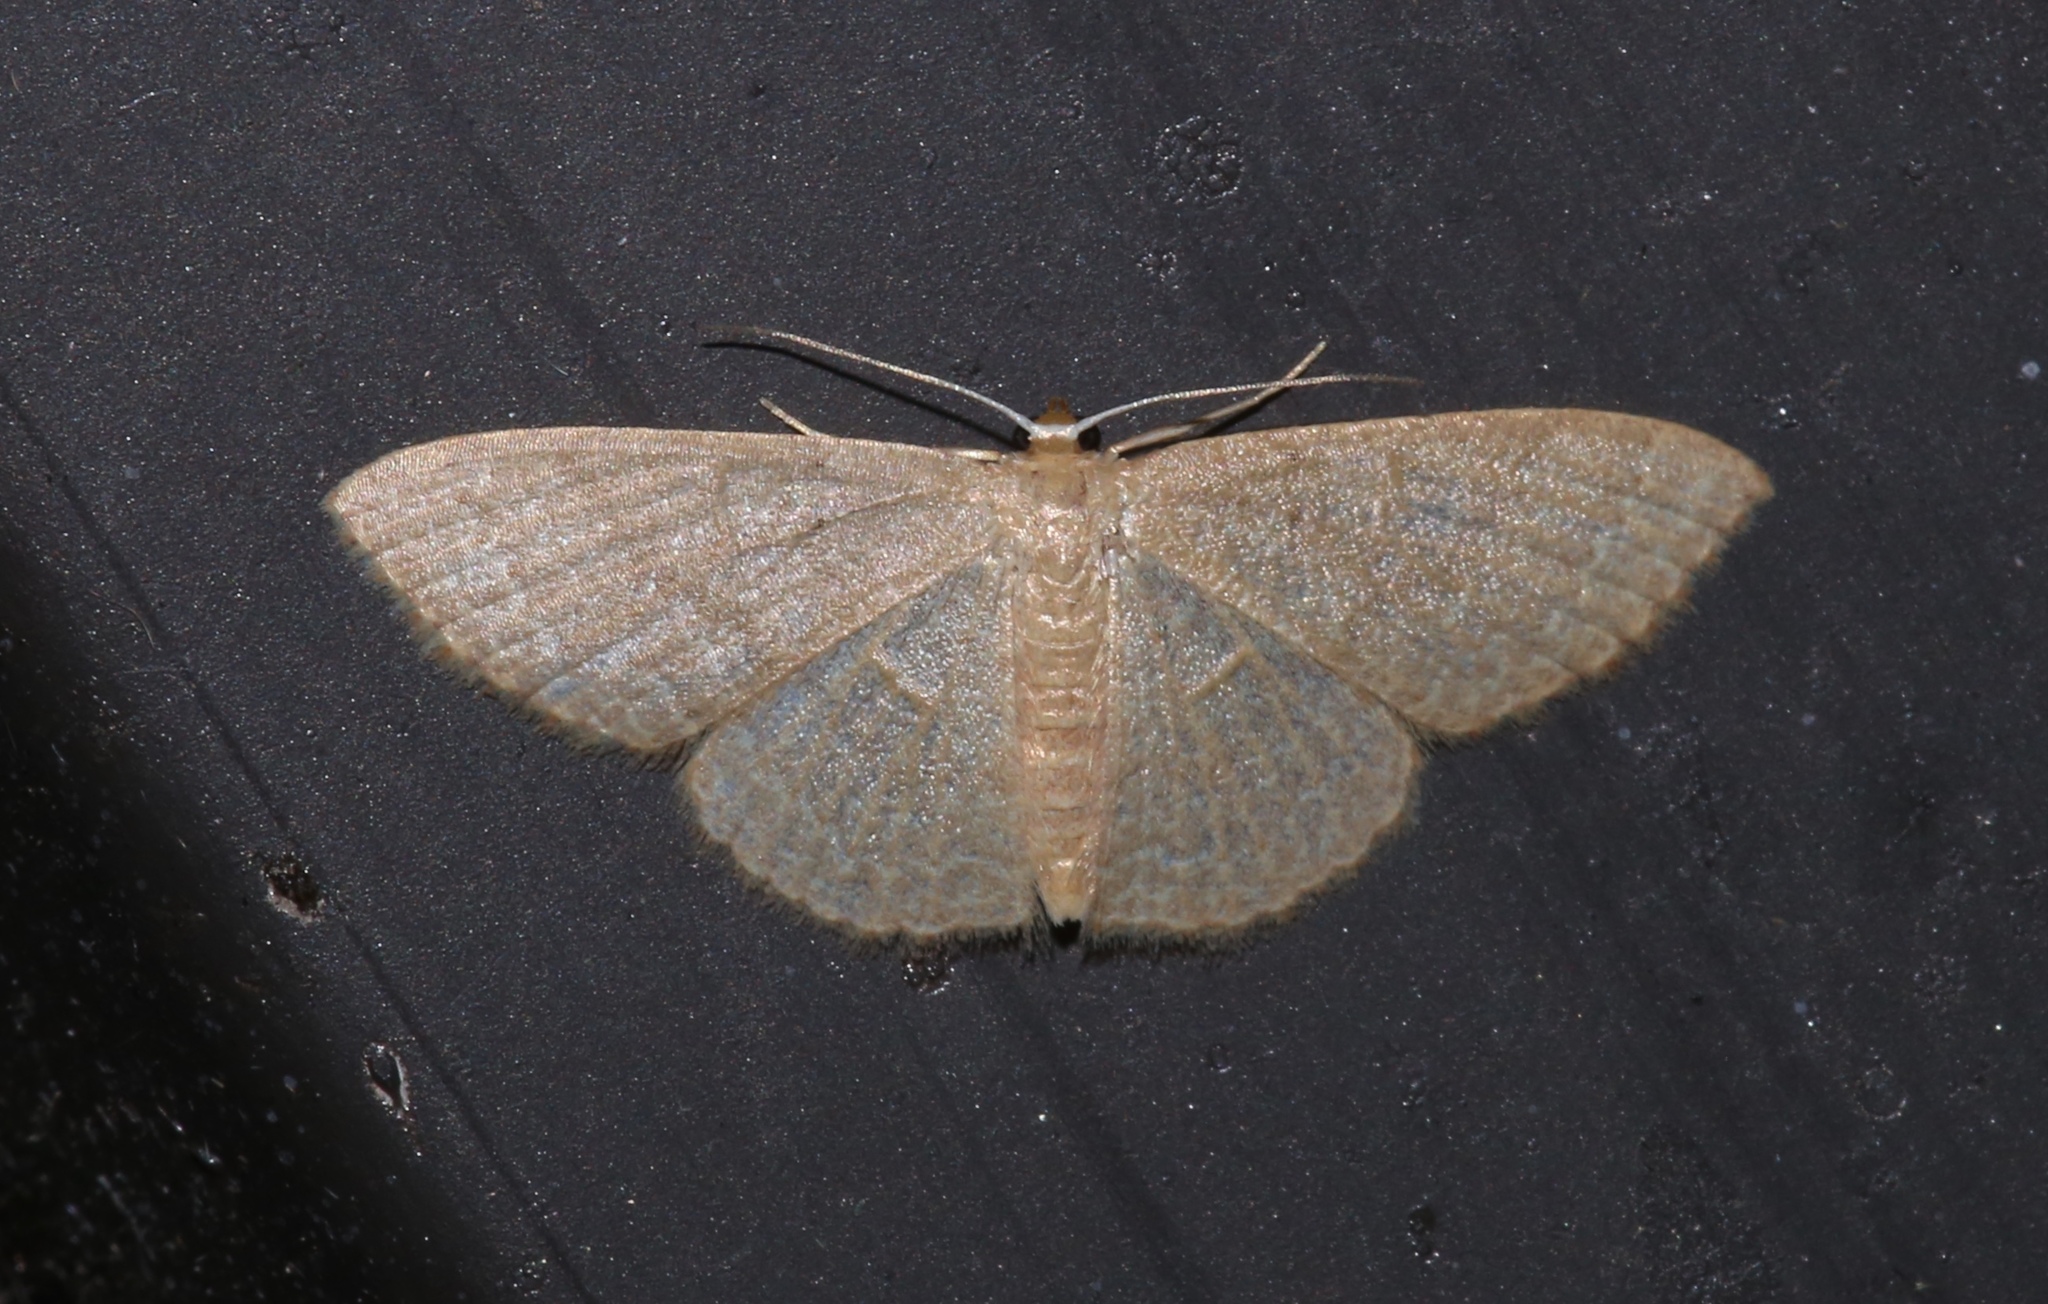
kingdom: Animalia
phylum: Arthropoda
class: Insecta
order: Lepidoptera
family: Geometridae
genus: Pleuroprucha
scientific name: Pleuroprucha insulsaria
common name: Common tan wave
